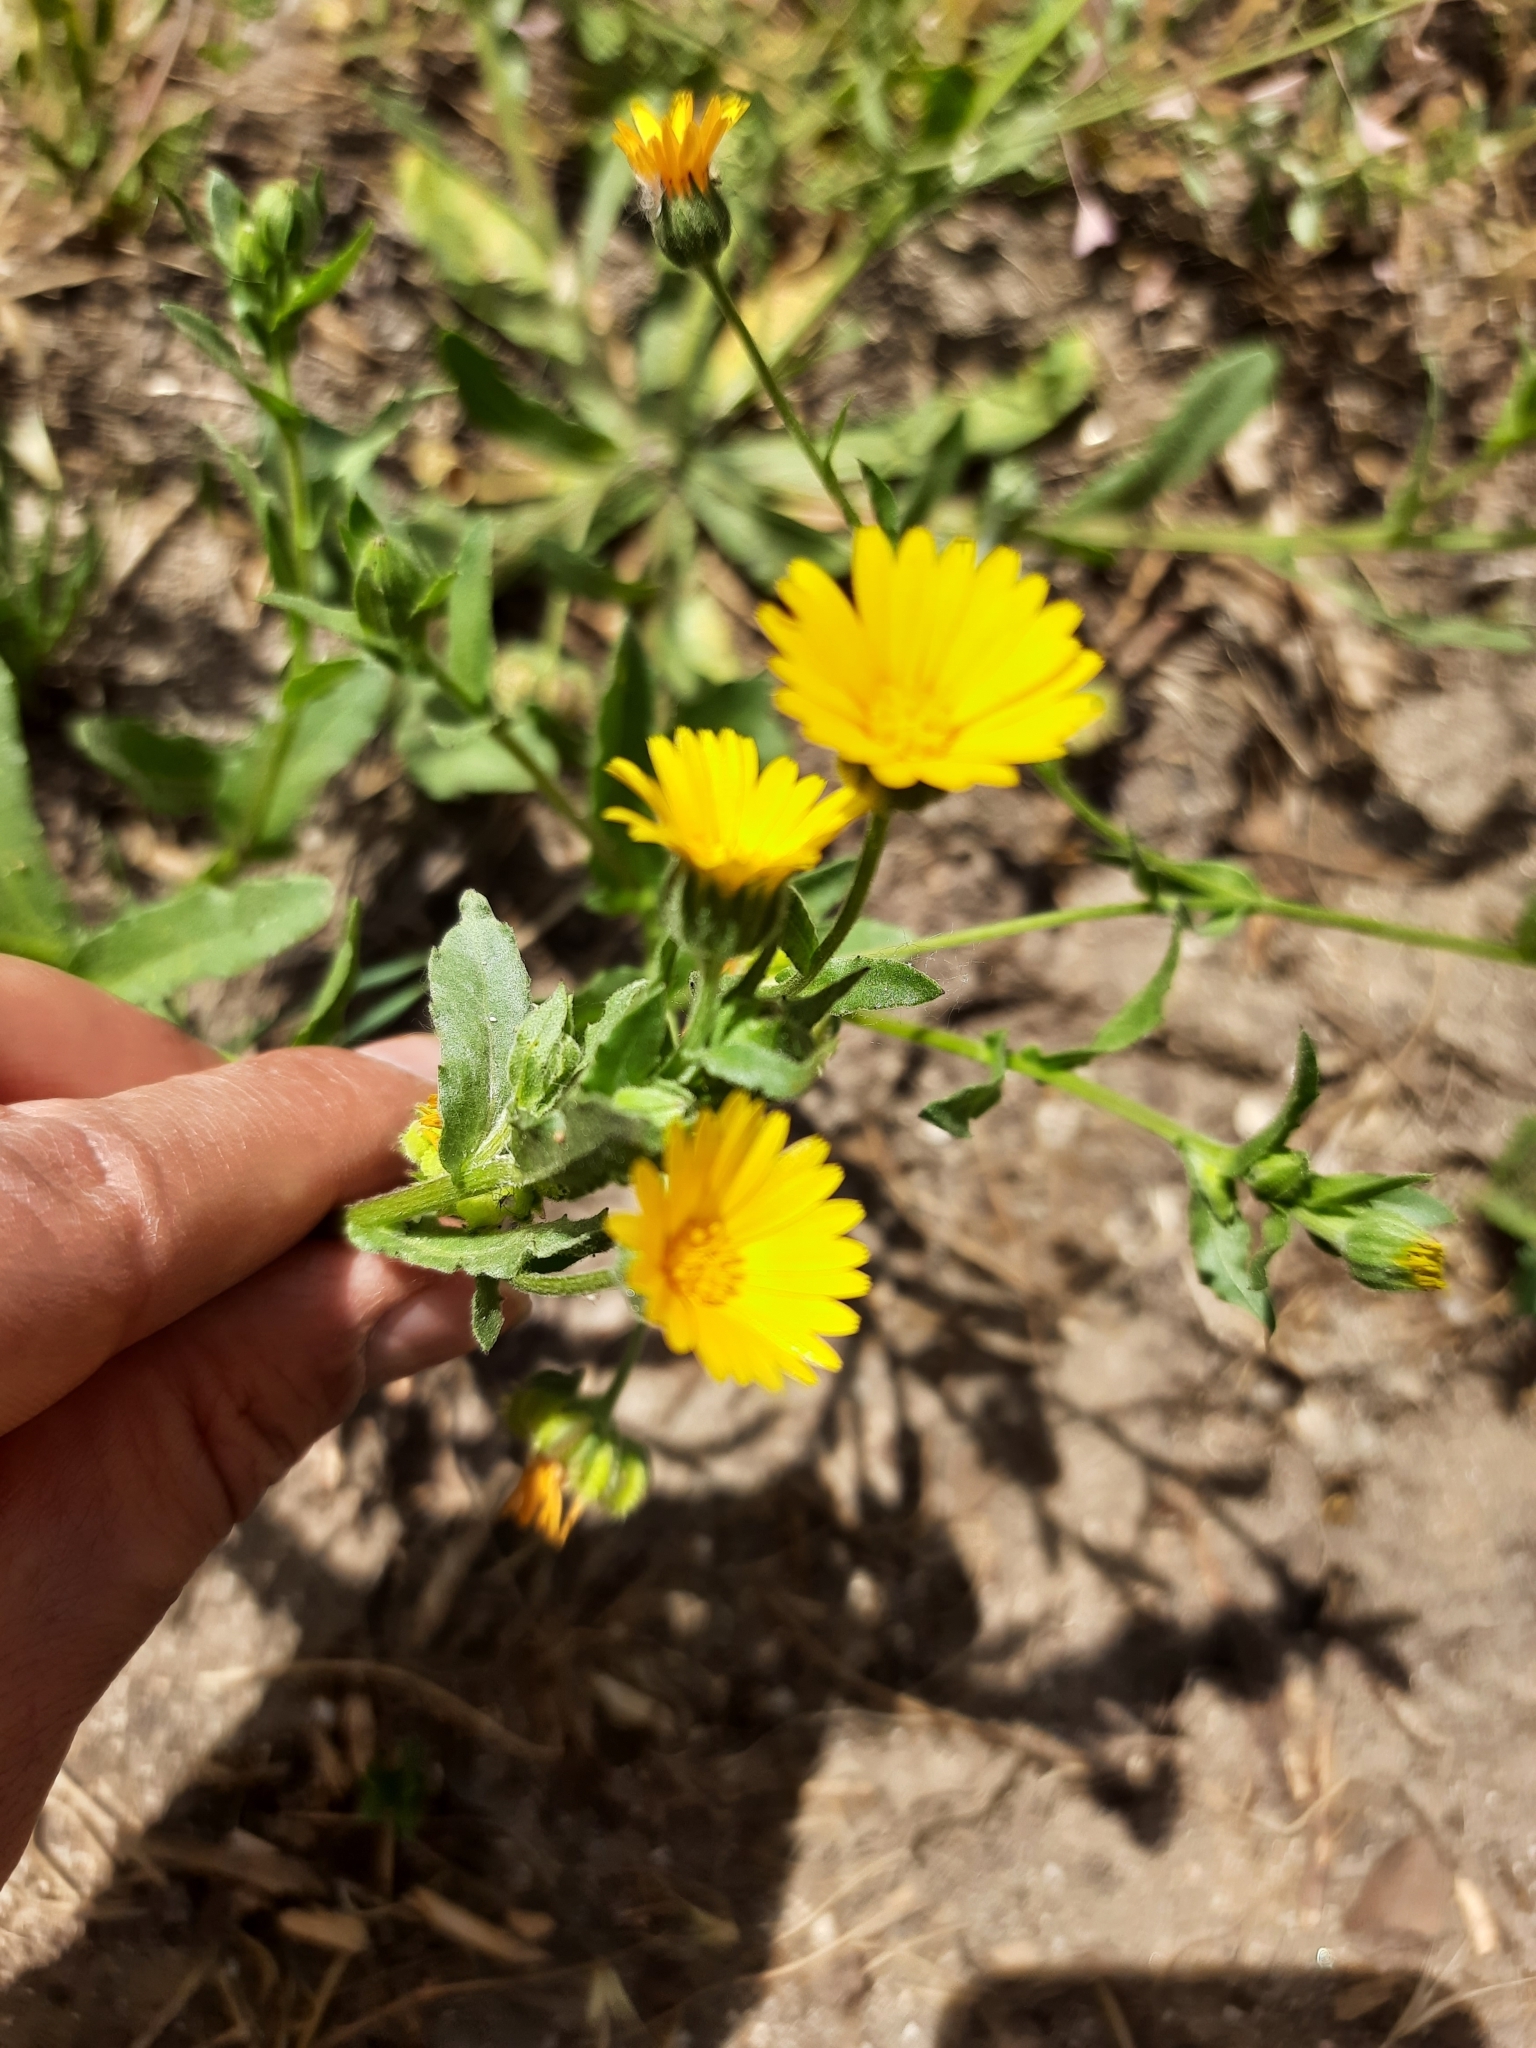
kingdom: Plantae
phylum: Tracheophyta
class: Magnoliopsida
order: Asterales
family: Asteraceae
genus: Calendula
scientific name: Calendula arvensis
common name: Field marigold
